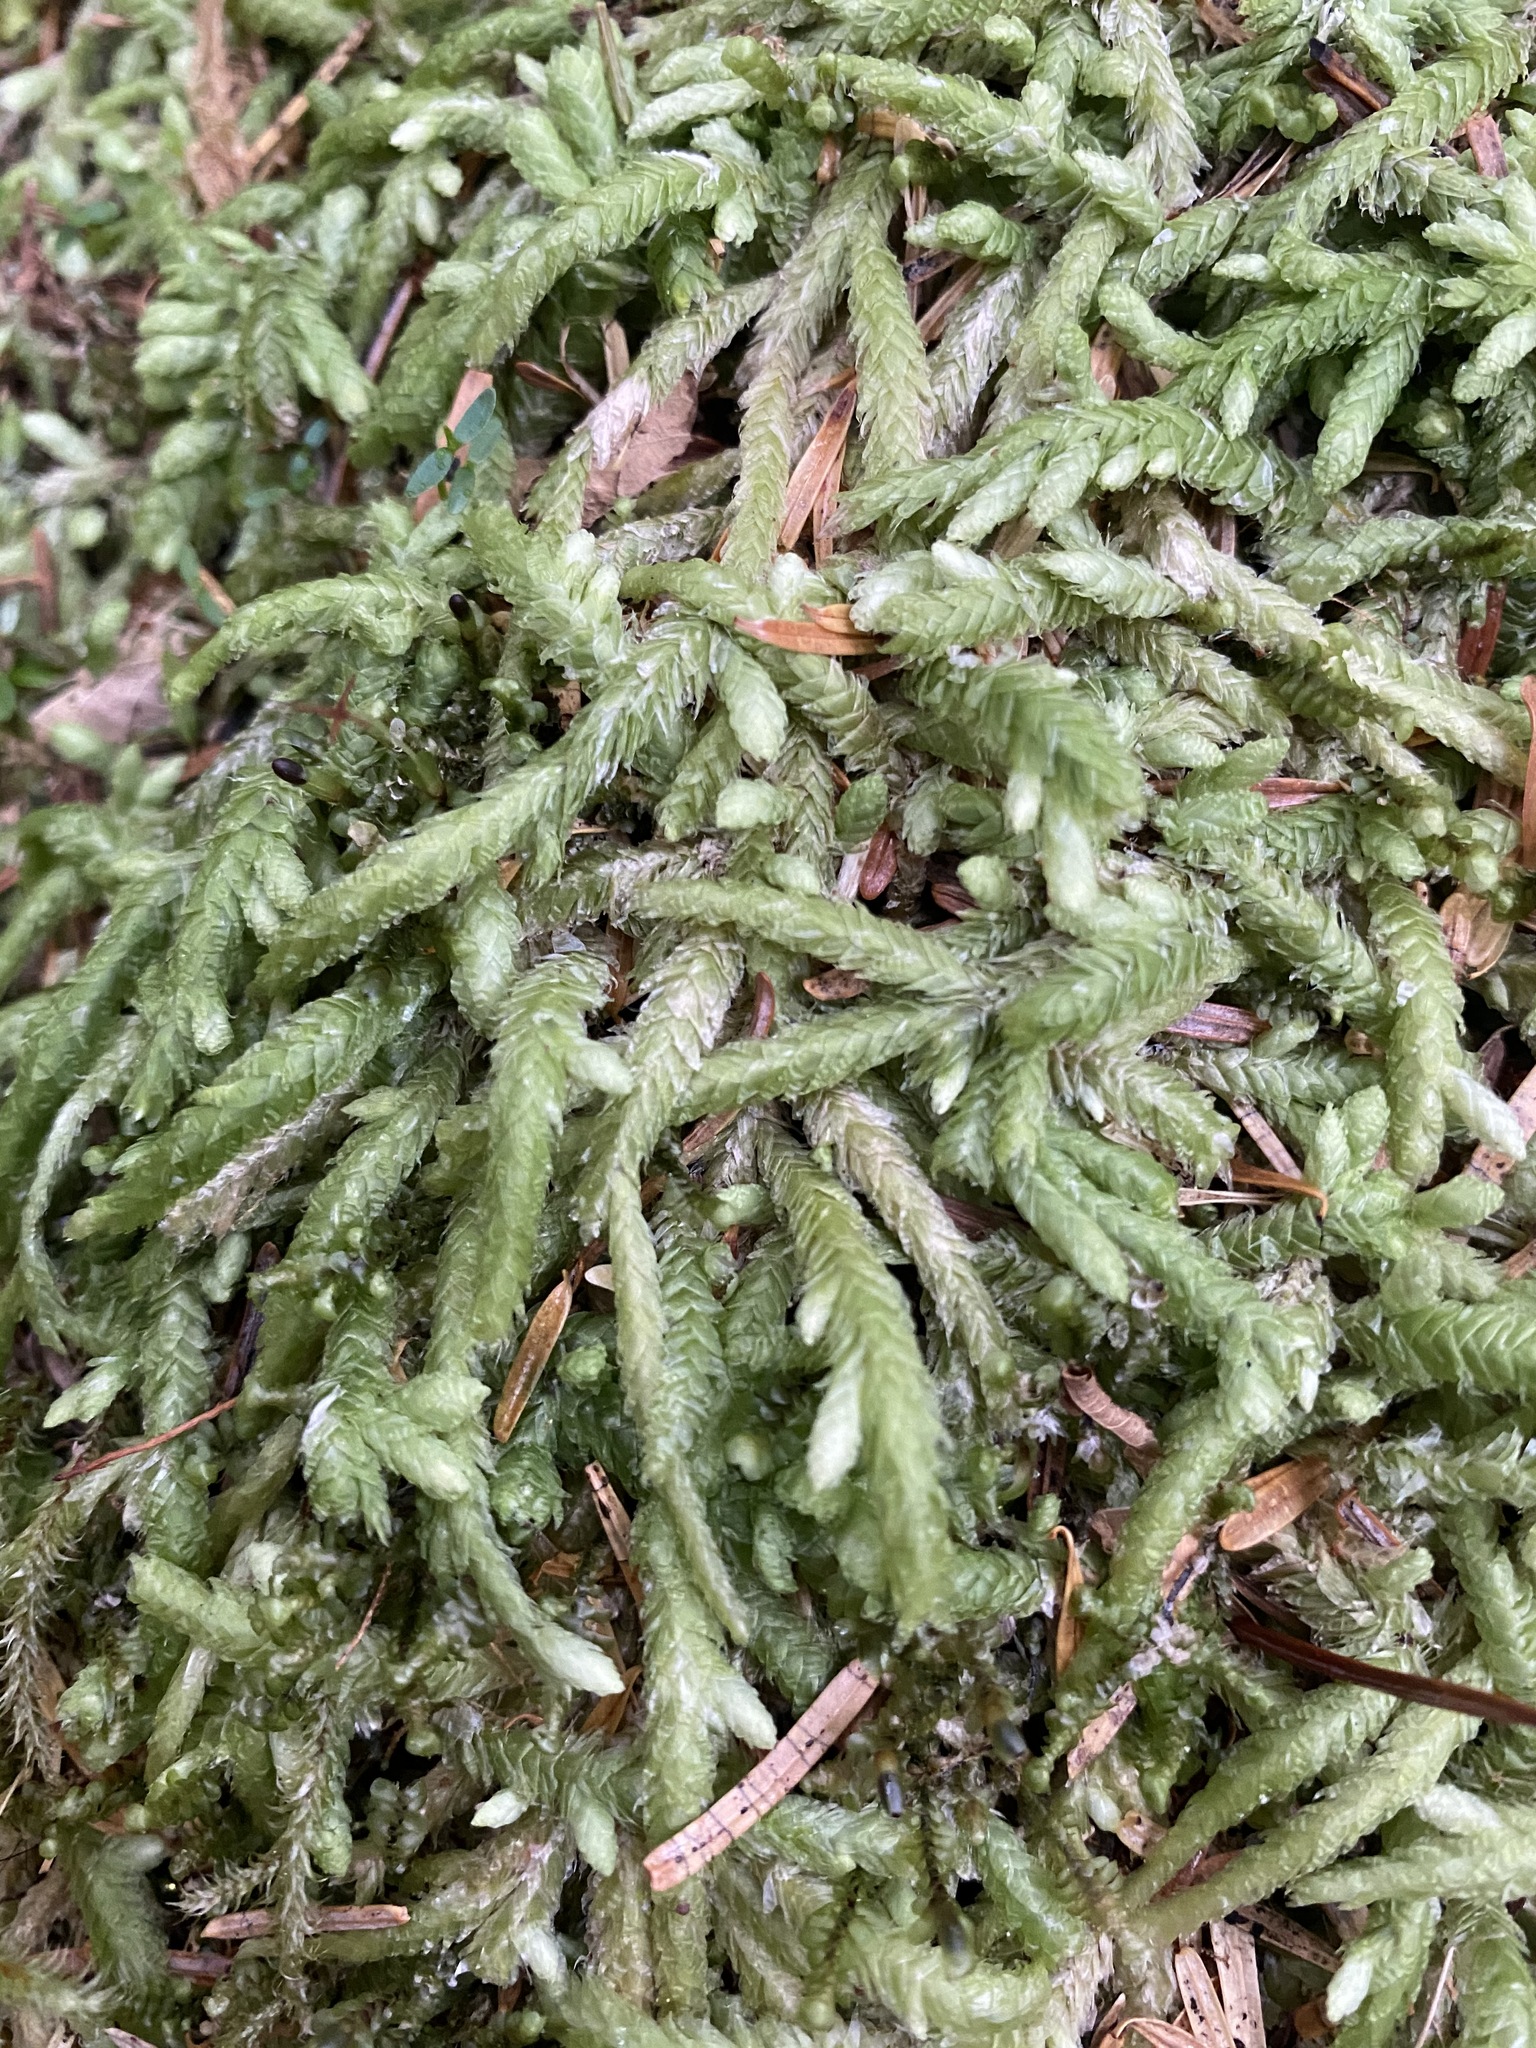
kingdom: Plantae
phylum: Bryophyta
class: Bryopsida
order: Hypnales
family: Plagiotheciaceae
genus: Plagiothecium
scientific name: Plagiothecium undulatum
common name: Waved silk-moss
